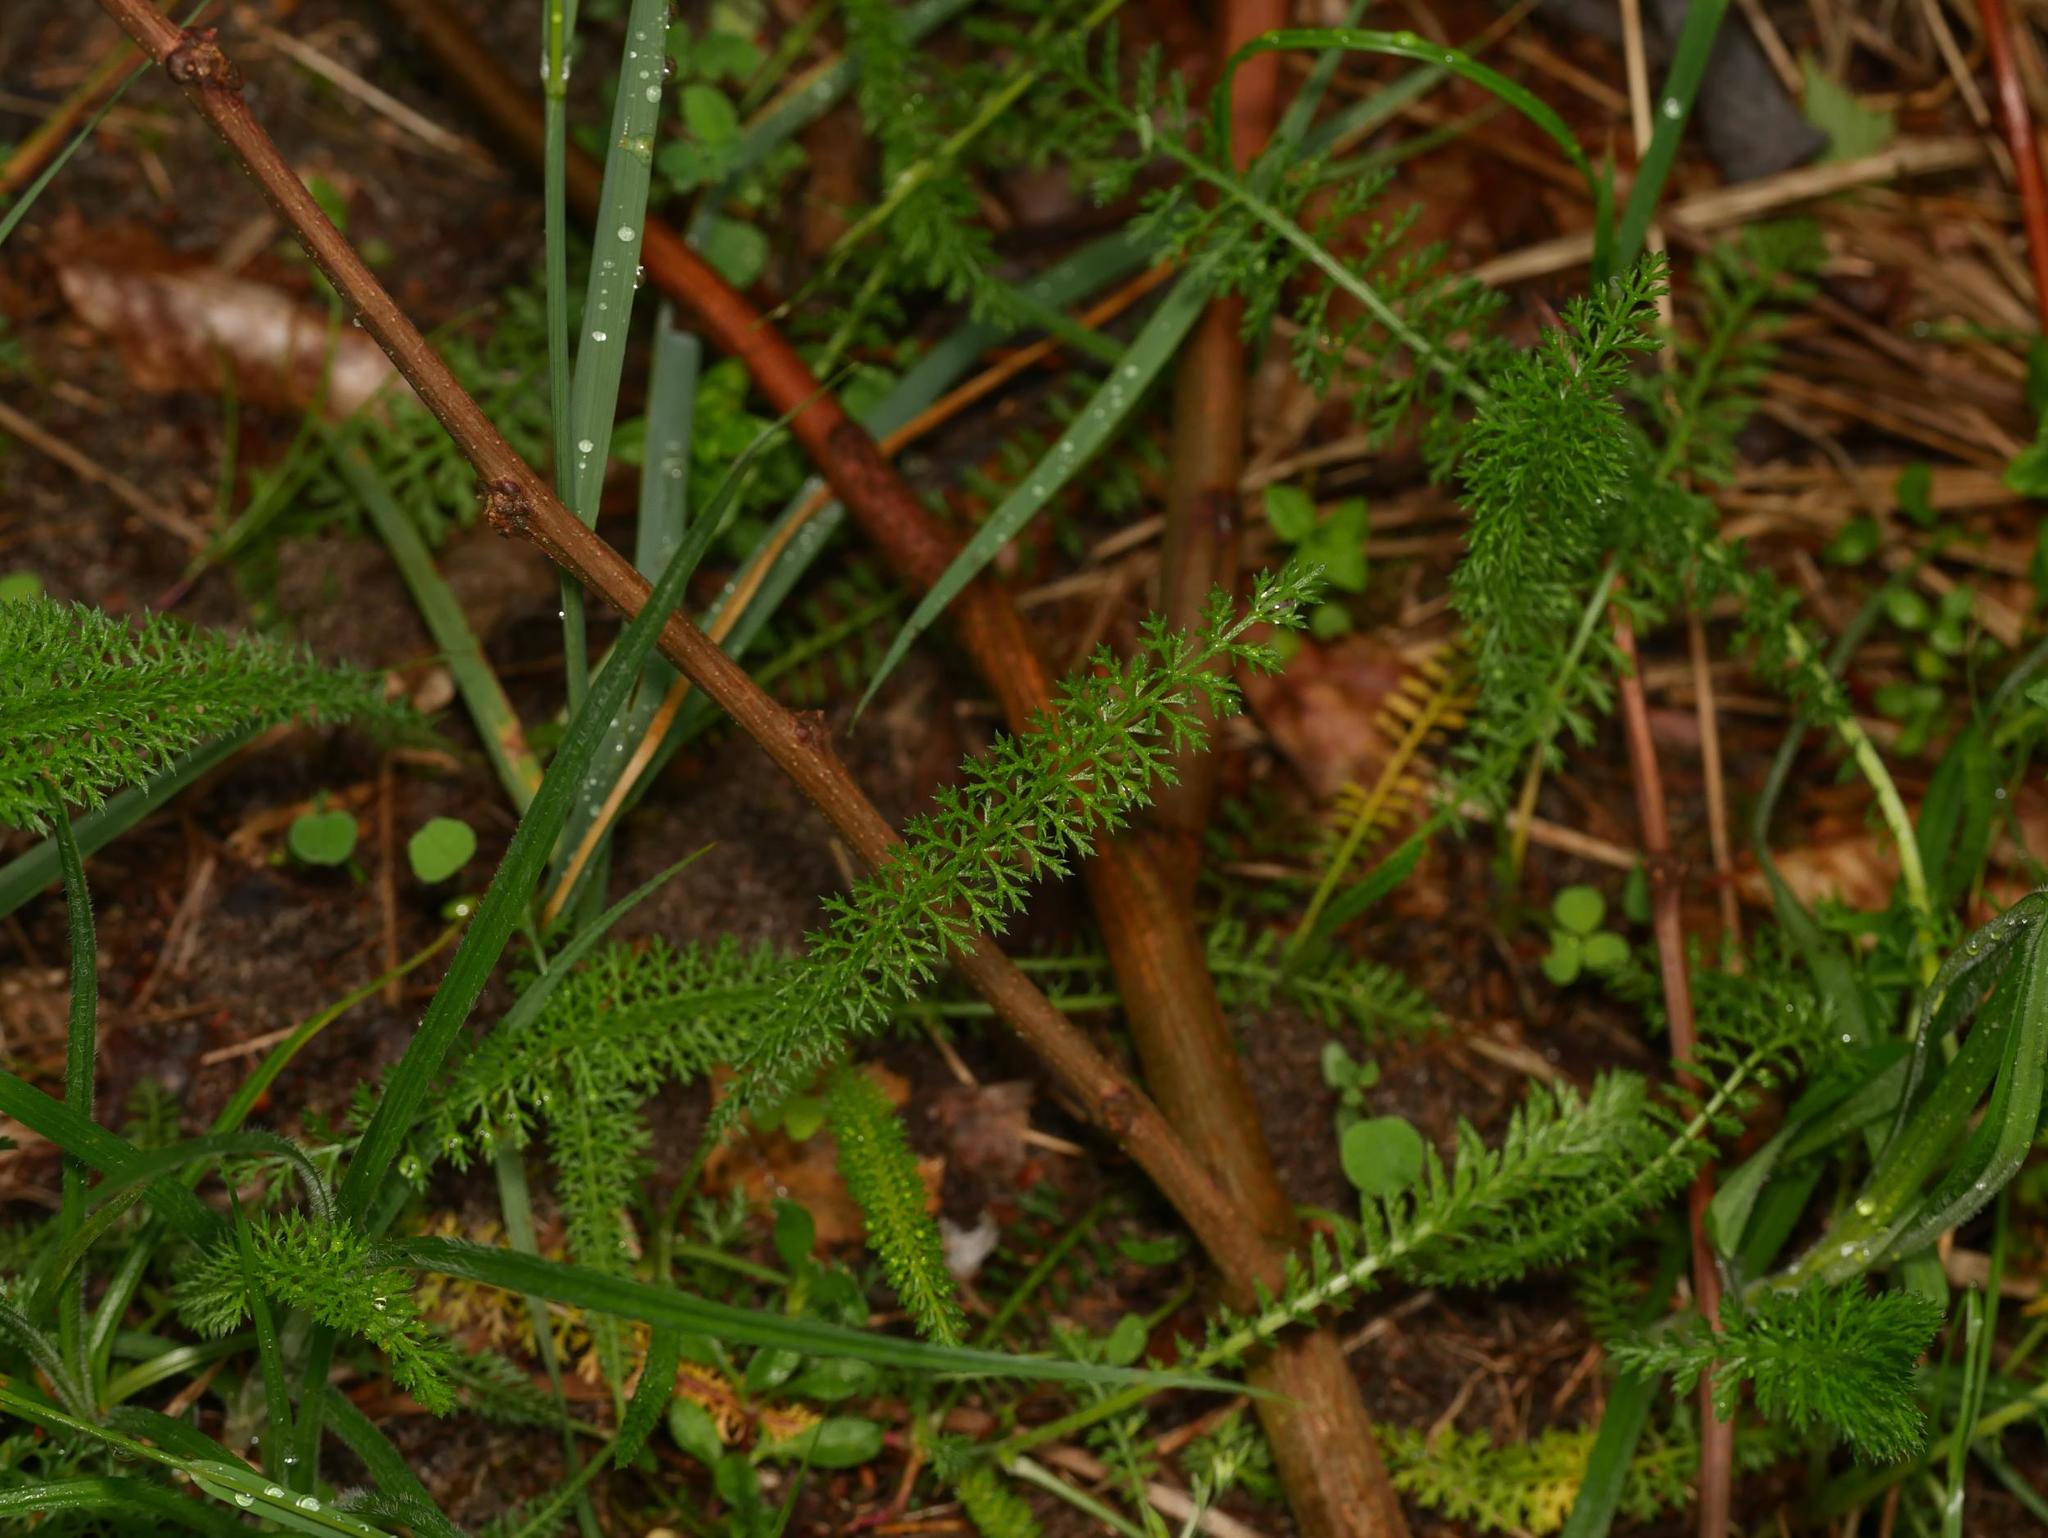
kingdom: Plantae
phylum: Tracheophyta
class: Magnoliopsida
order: Asterales
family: Asteraceae
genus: Achillea
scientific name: Achillea millefolium
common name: Yarrow
